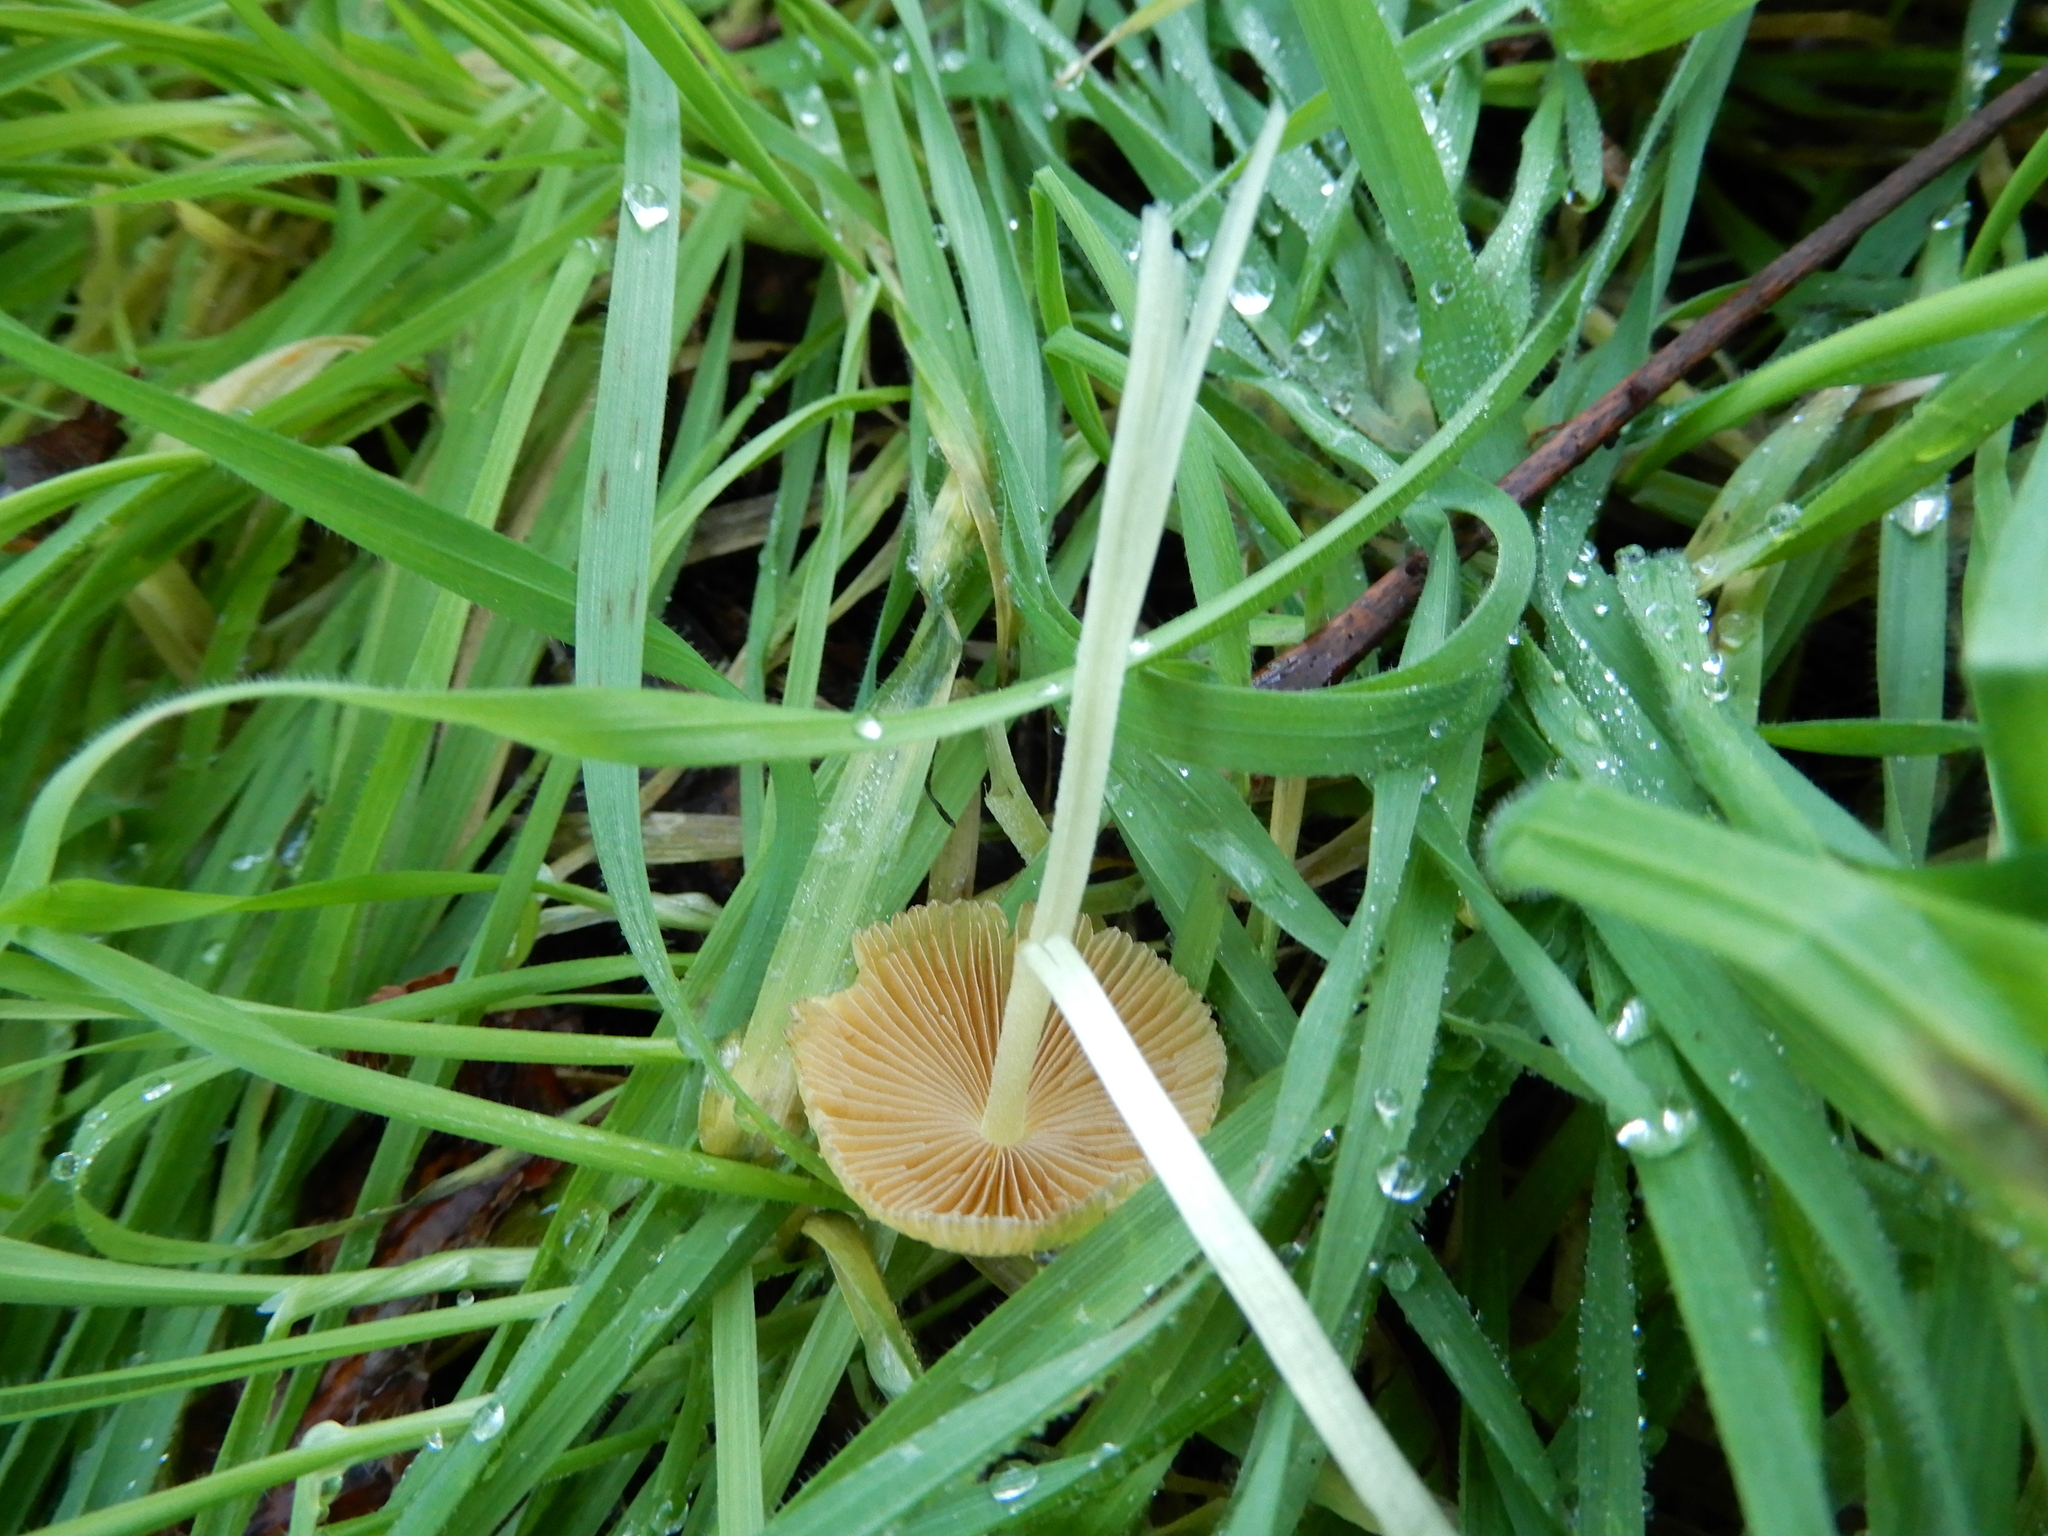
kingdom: Fungi
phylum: Basidiomycota
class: Agaricomycetes
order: Agaricales
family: Bolbitiaceae
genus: Bolbitius
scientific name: Bolbitius titubans
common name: Yellow fieldcap
